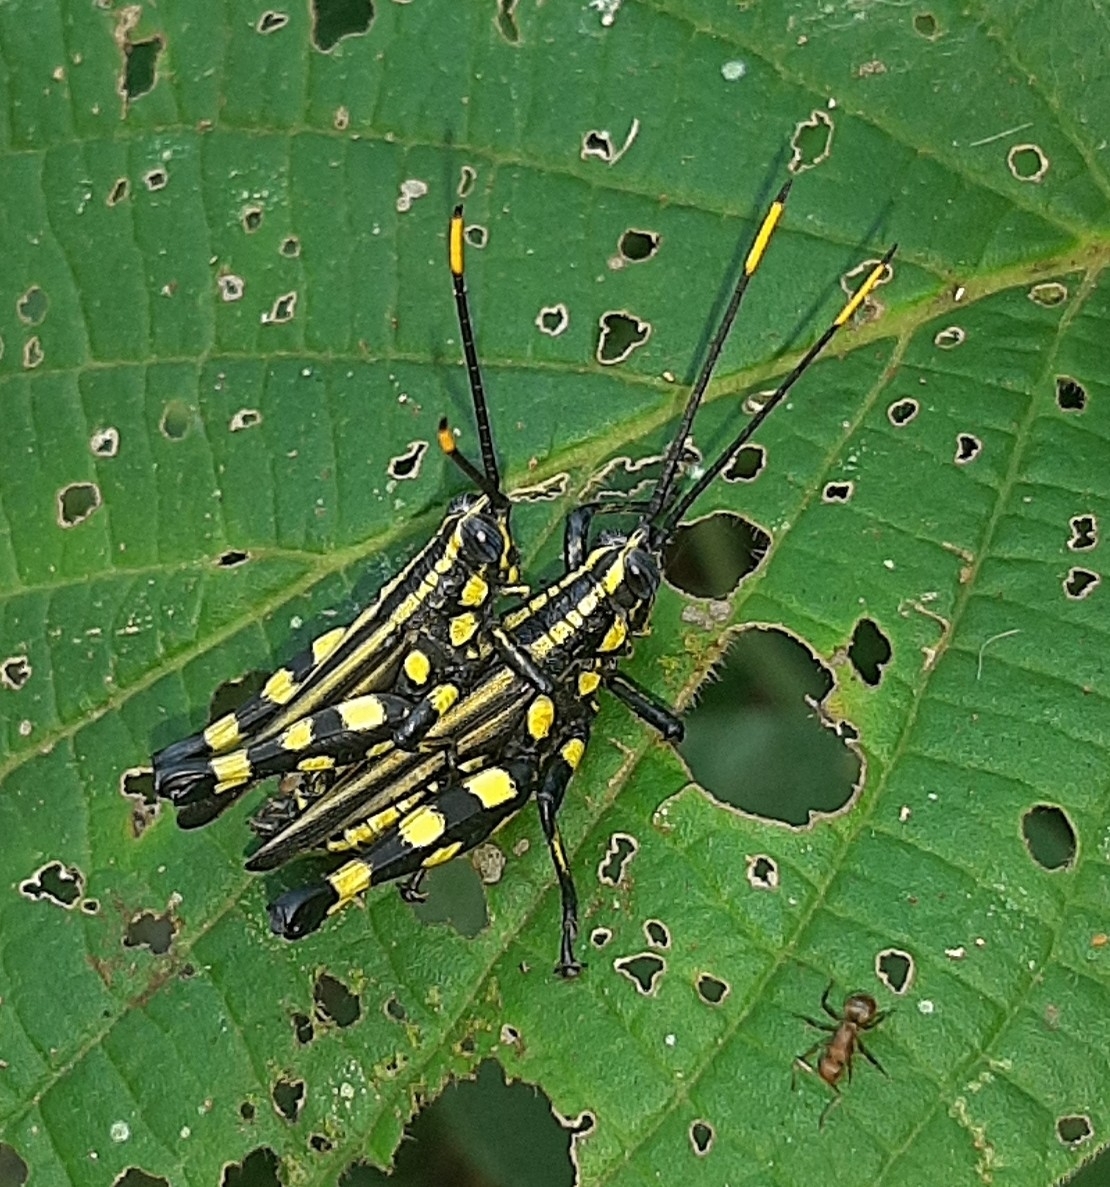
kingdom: Animalia
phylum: Arthropoda
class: Insecta
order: Orthoptera
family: Acrididae
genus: Rhopsotettix
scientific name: Rhopsotettix consummatus
